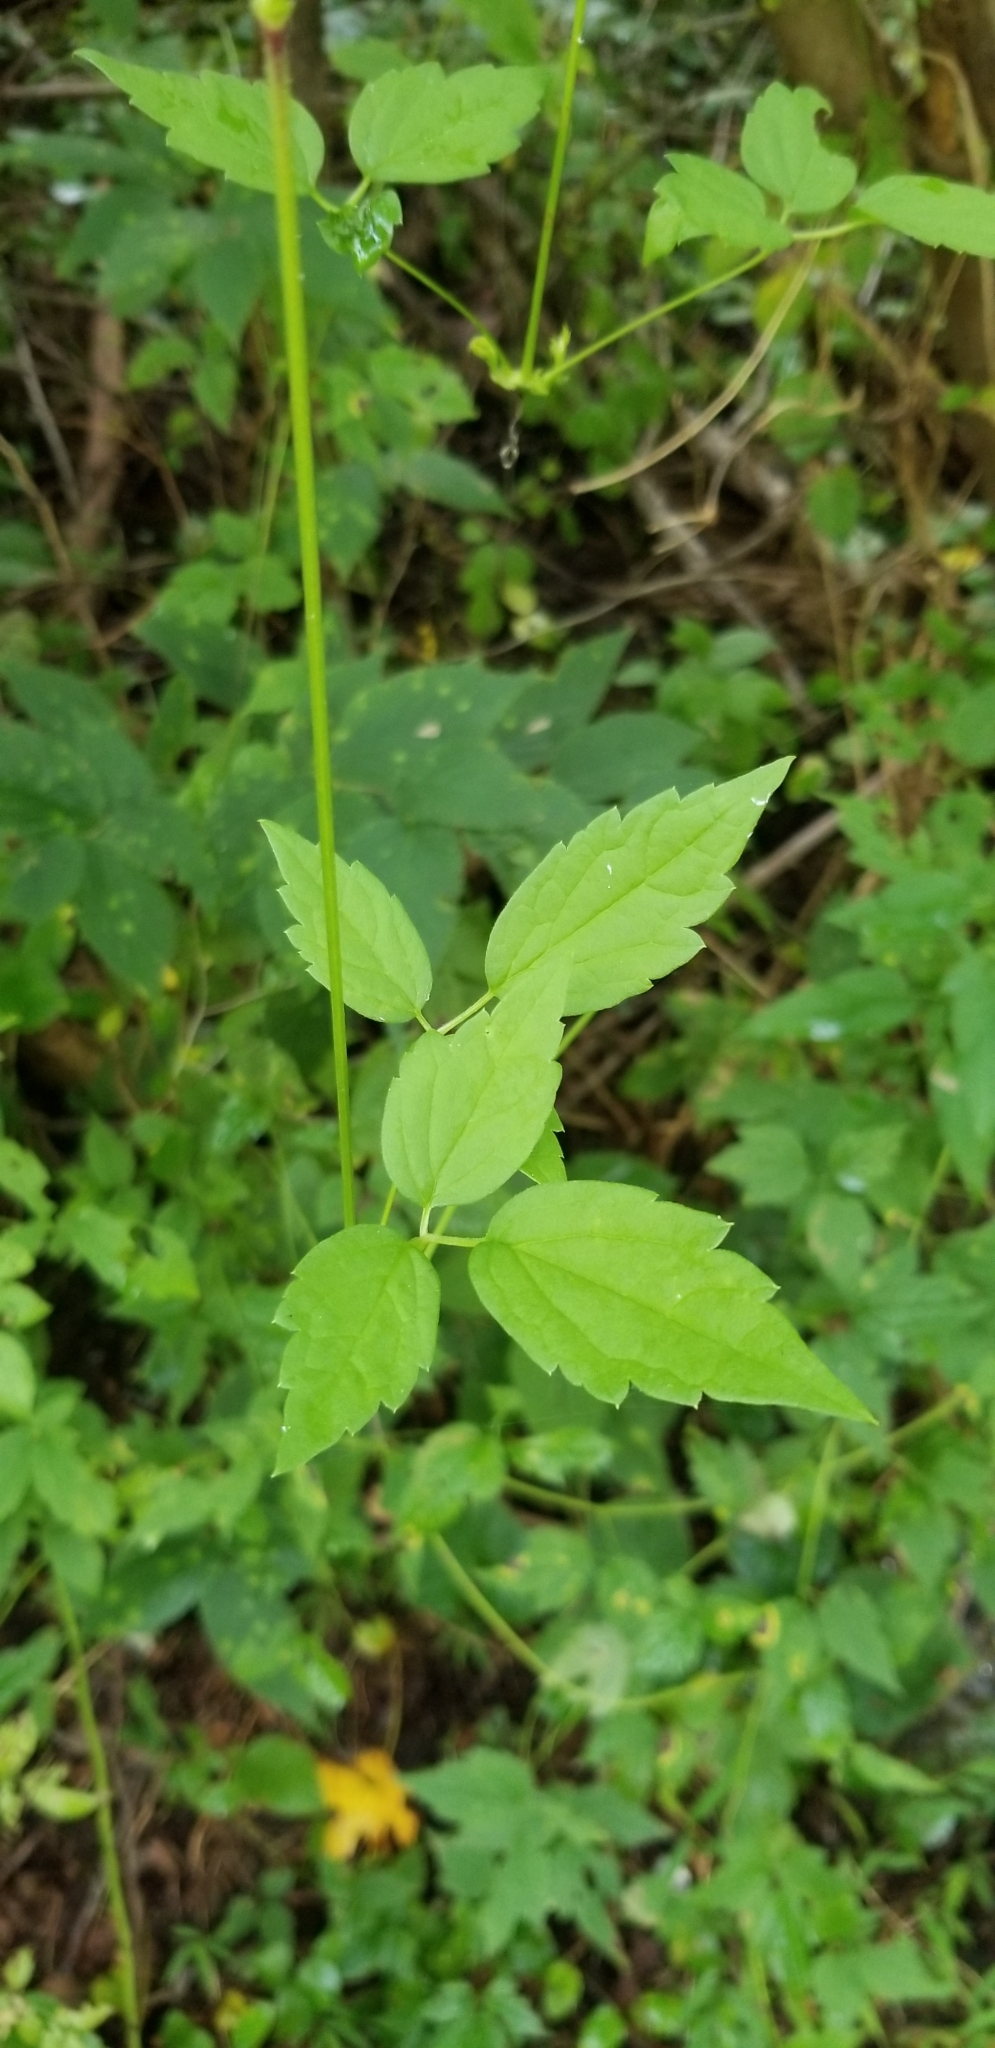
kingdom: Plantae
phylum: Tracheophyta
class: Magnoliopsida
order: Ranunculales
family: Ranunculaceae
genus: Clematis
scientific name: Clematis virginiana
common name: Virgin's-bower
